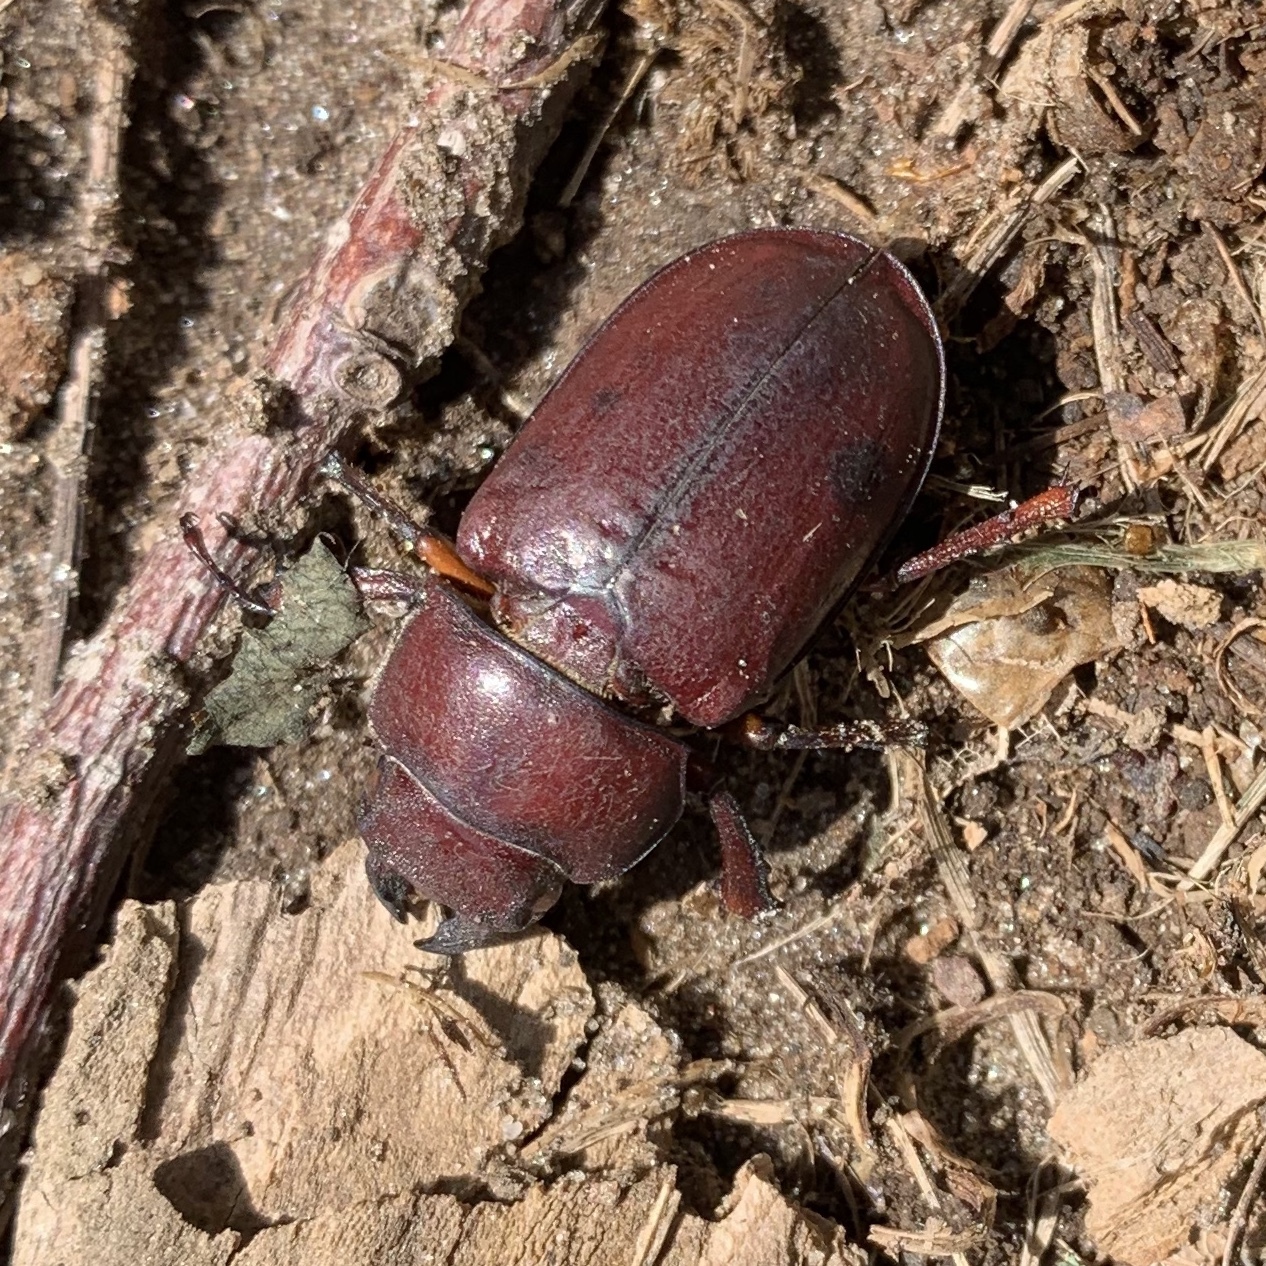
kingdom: Animalia
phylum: Arthropoda
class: Insecta
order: Coleoptera
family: Lucanidae
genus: Lucanus
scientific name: Lucanus capreolus
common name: Stag beetle
